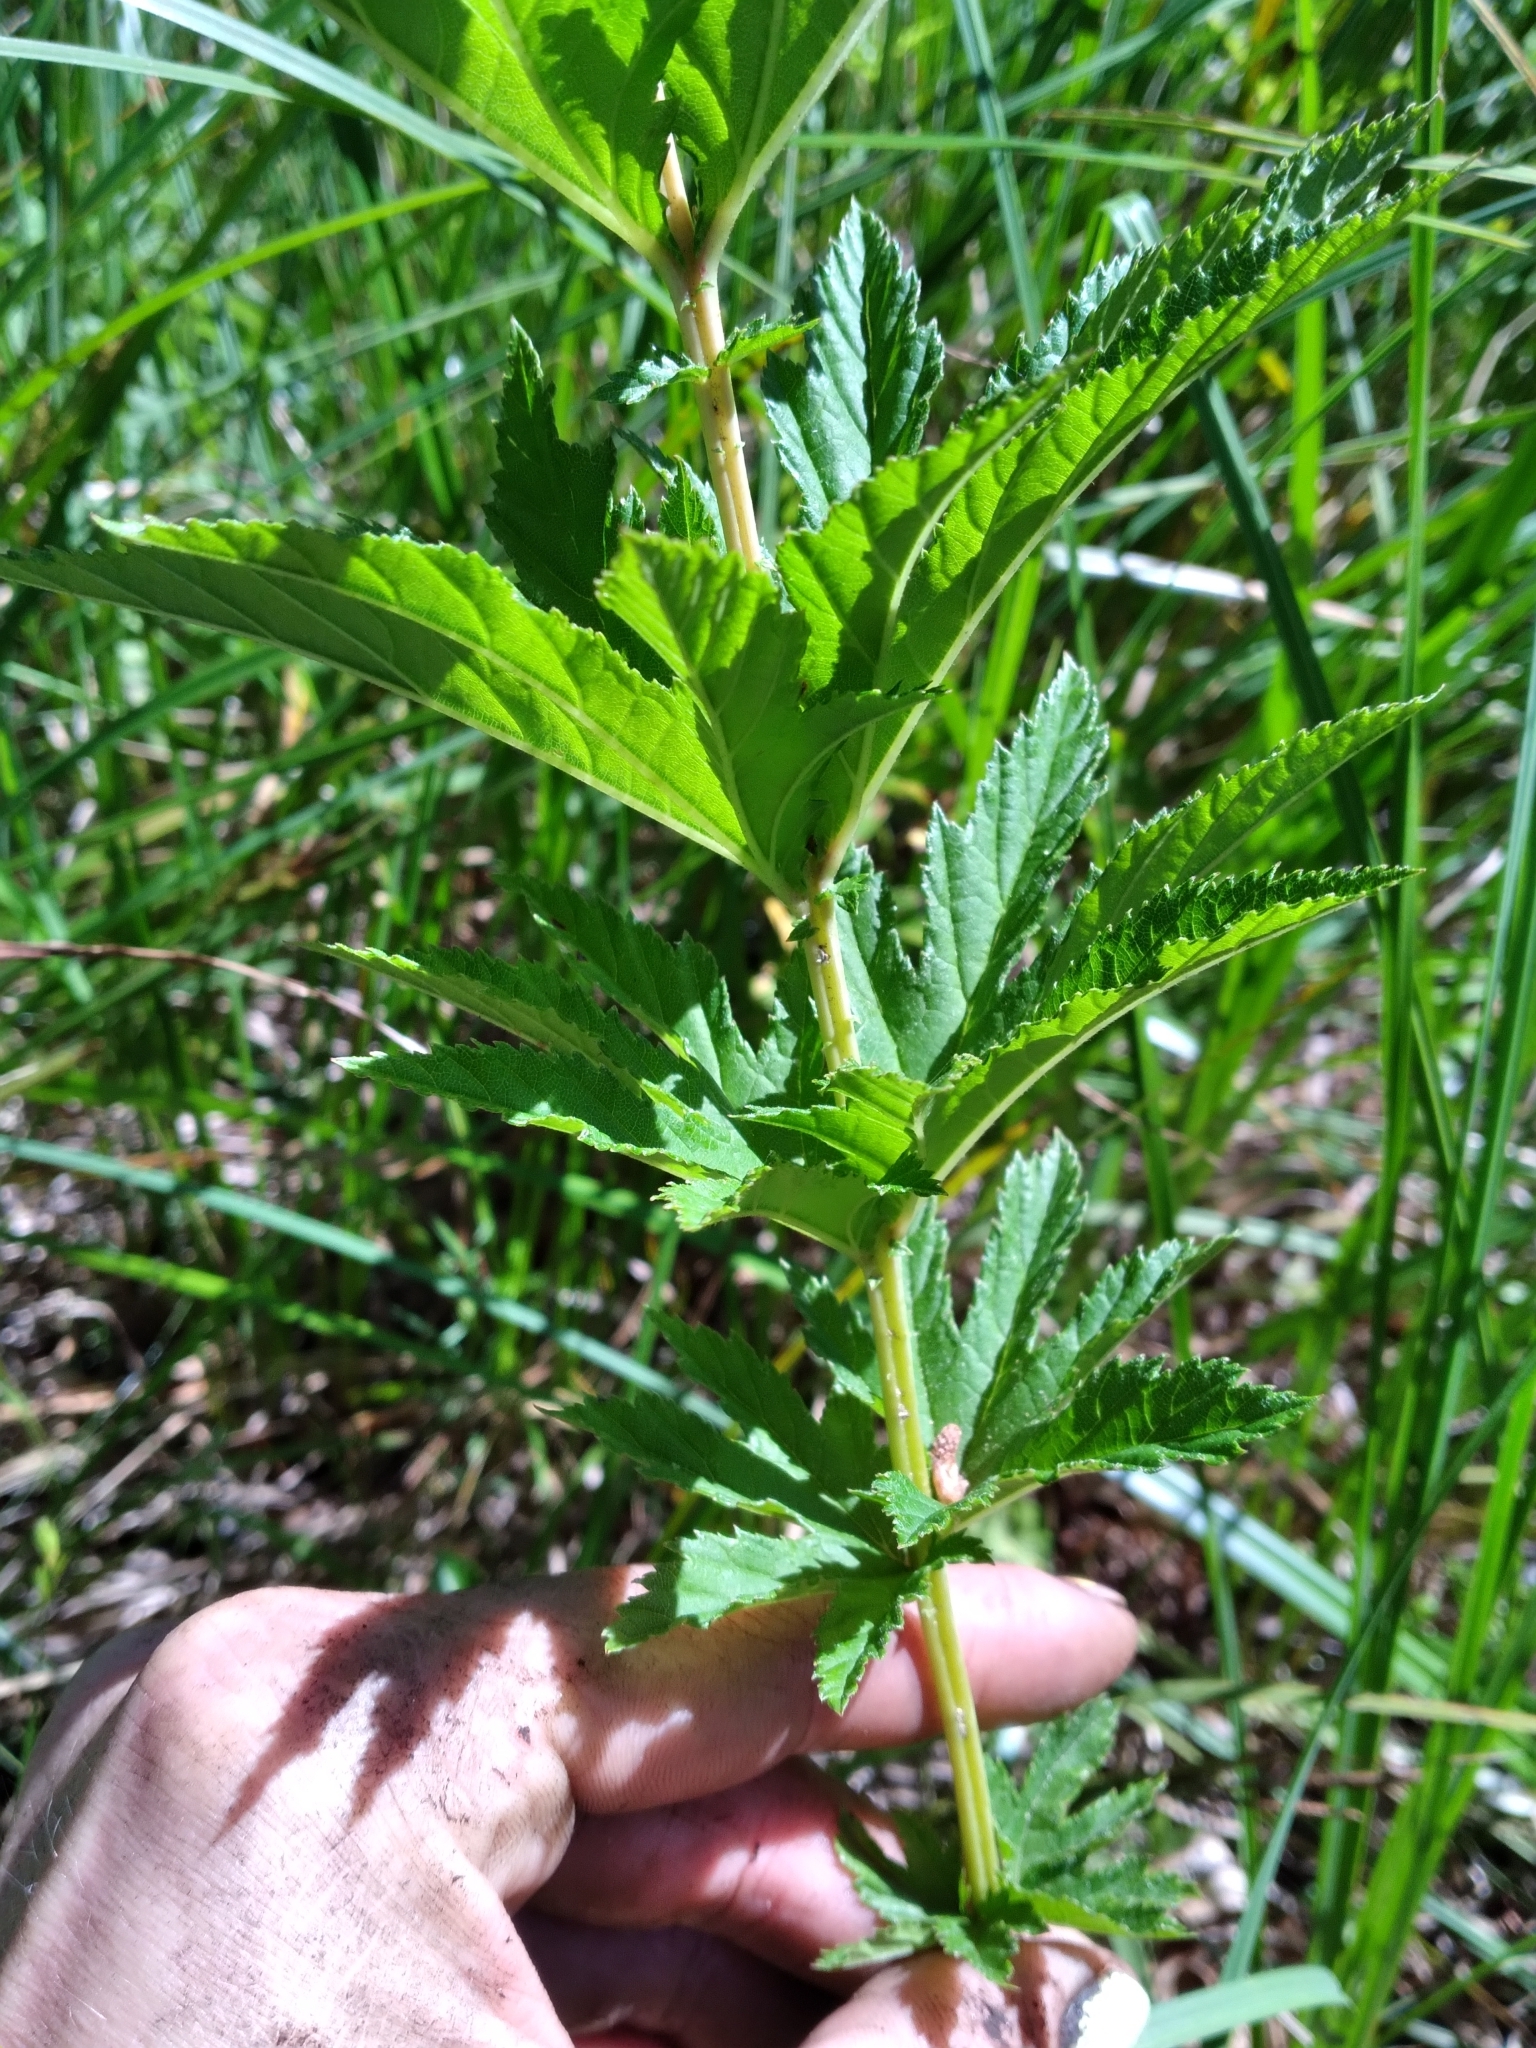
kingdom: Plantae
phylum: Tracheophyta
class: Magnoliopsida
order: Rosales
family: Rosaceae
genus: Filipendula
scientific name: Filipendula rubra
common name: Queen-of-the-prairie
